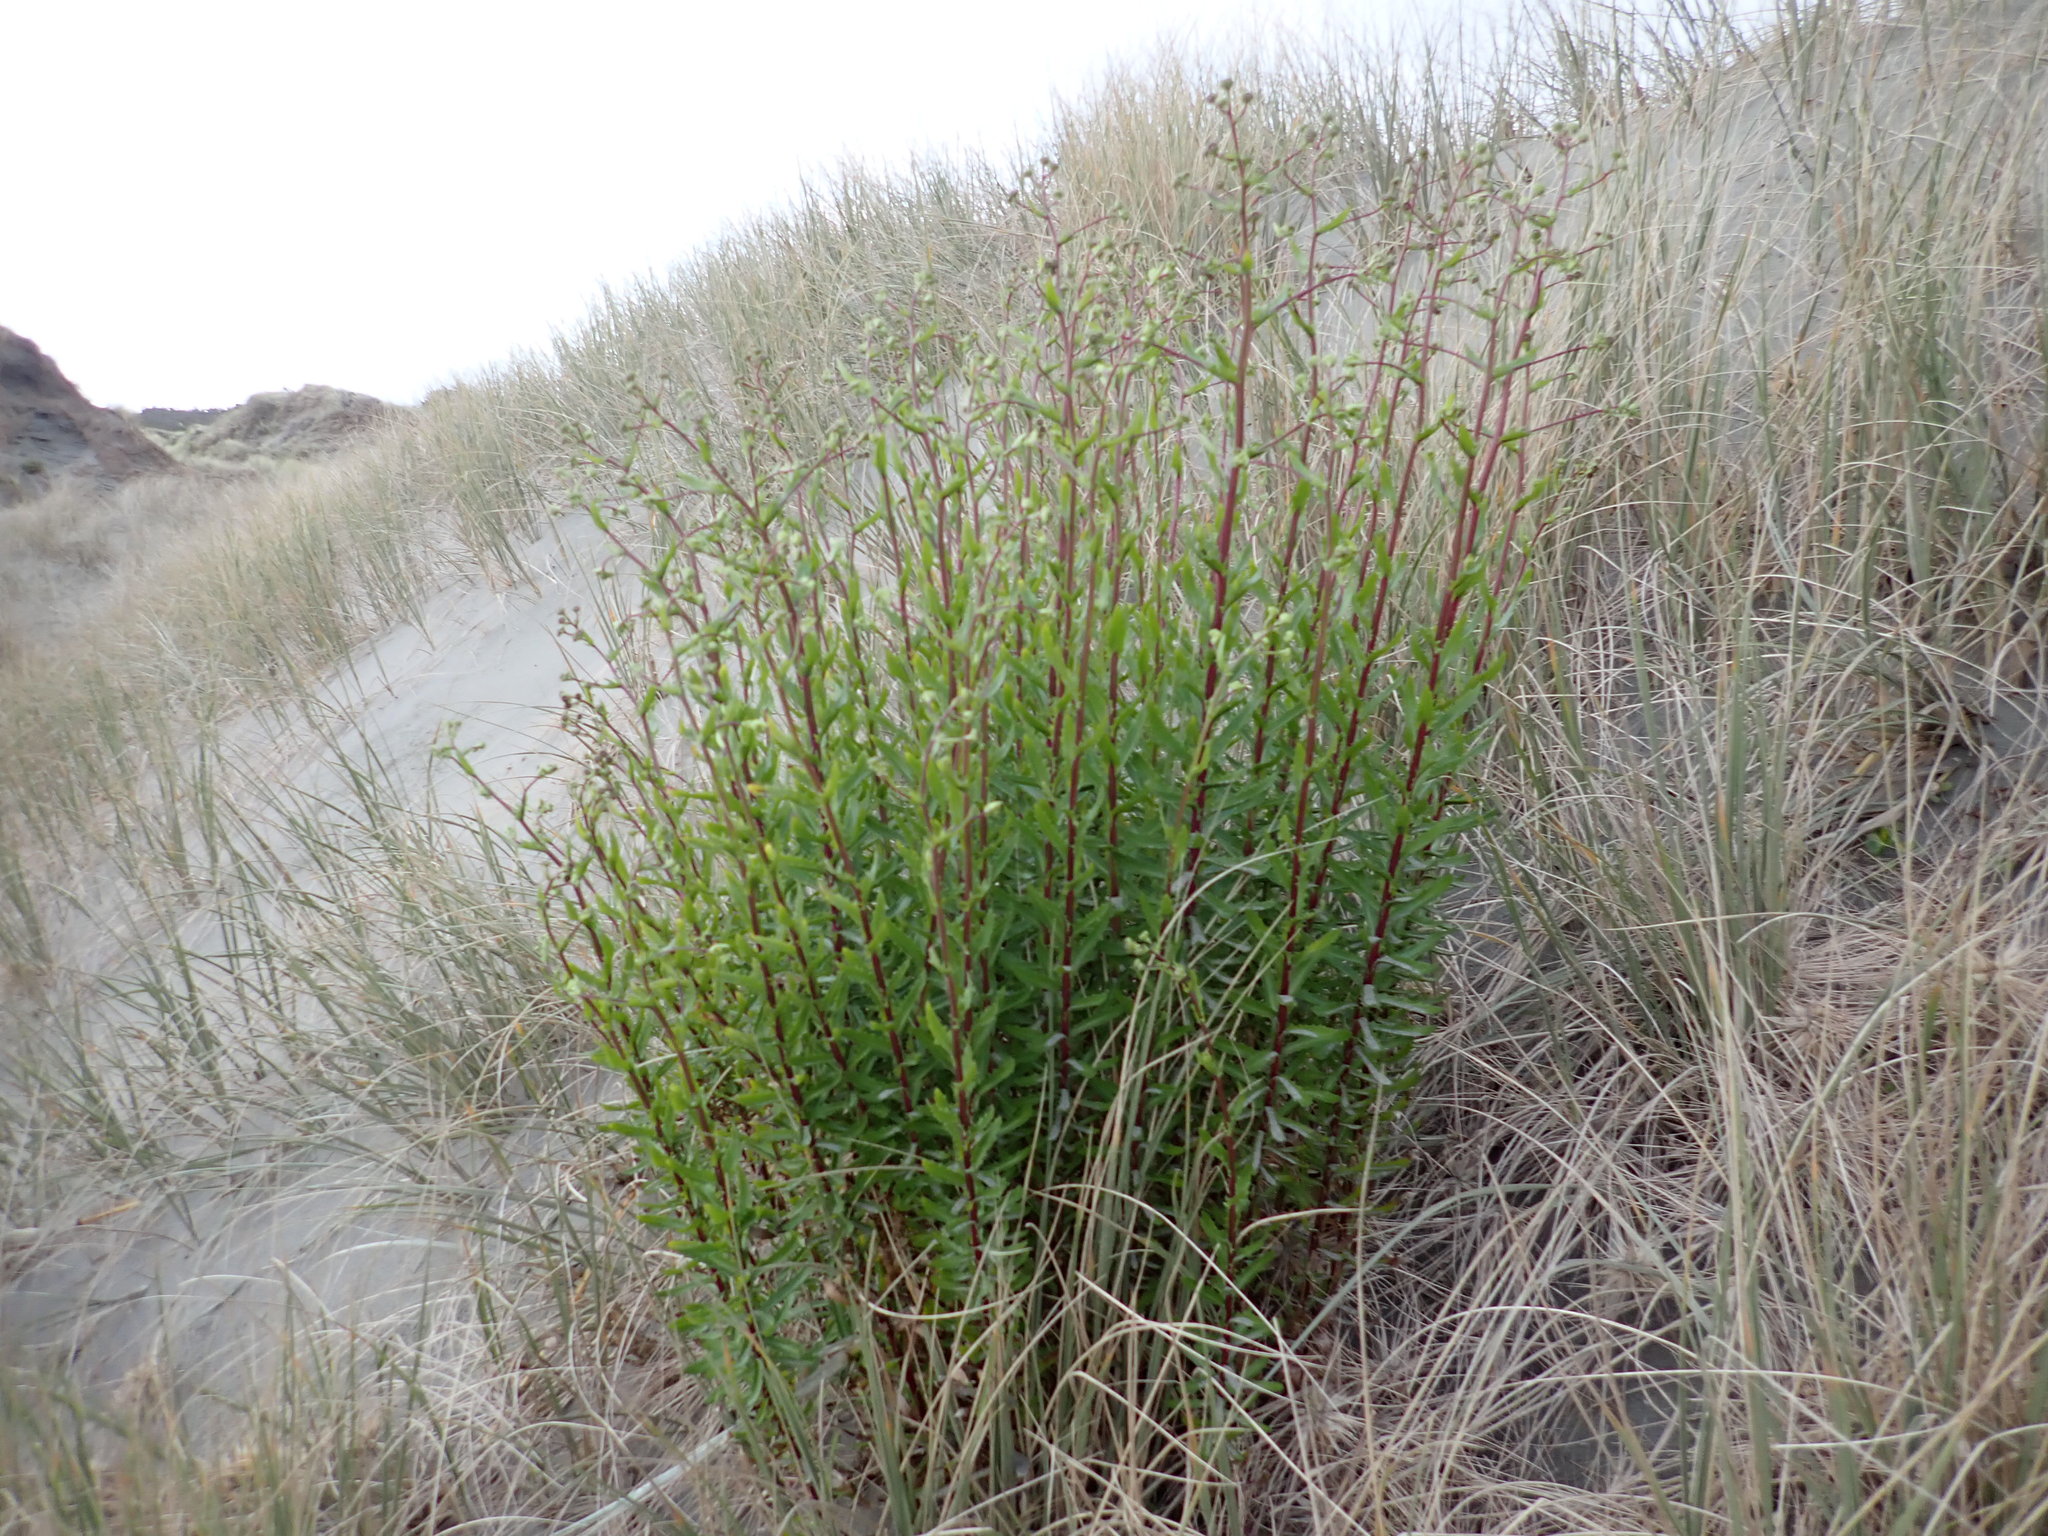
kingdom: Plantae
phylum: Tracheophyta
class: Magnoliopsida
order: Asterales
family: Asteraceae
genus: Senecio
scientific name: Senecio glastifolius
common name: Woad-leaved ragwort
